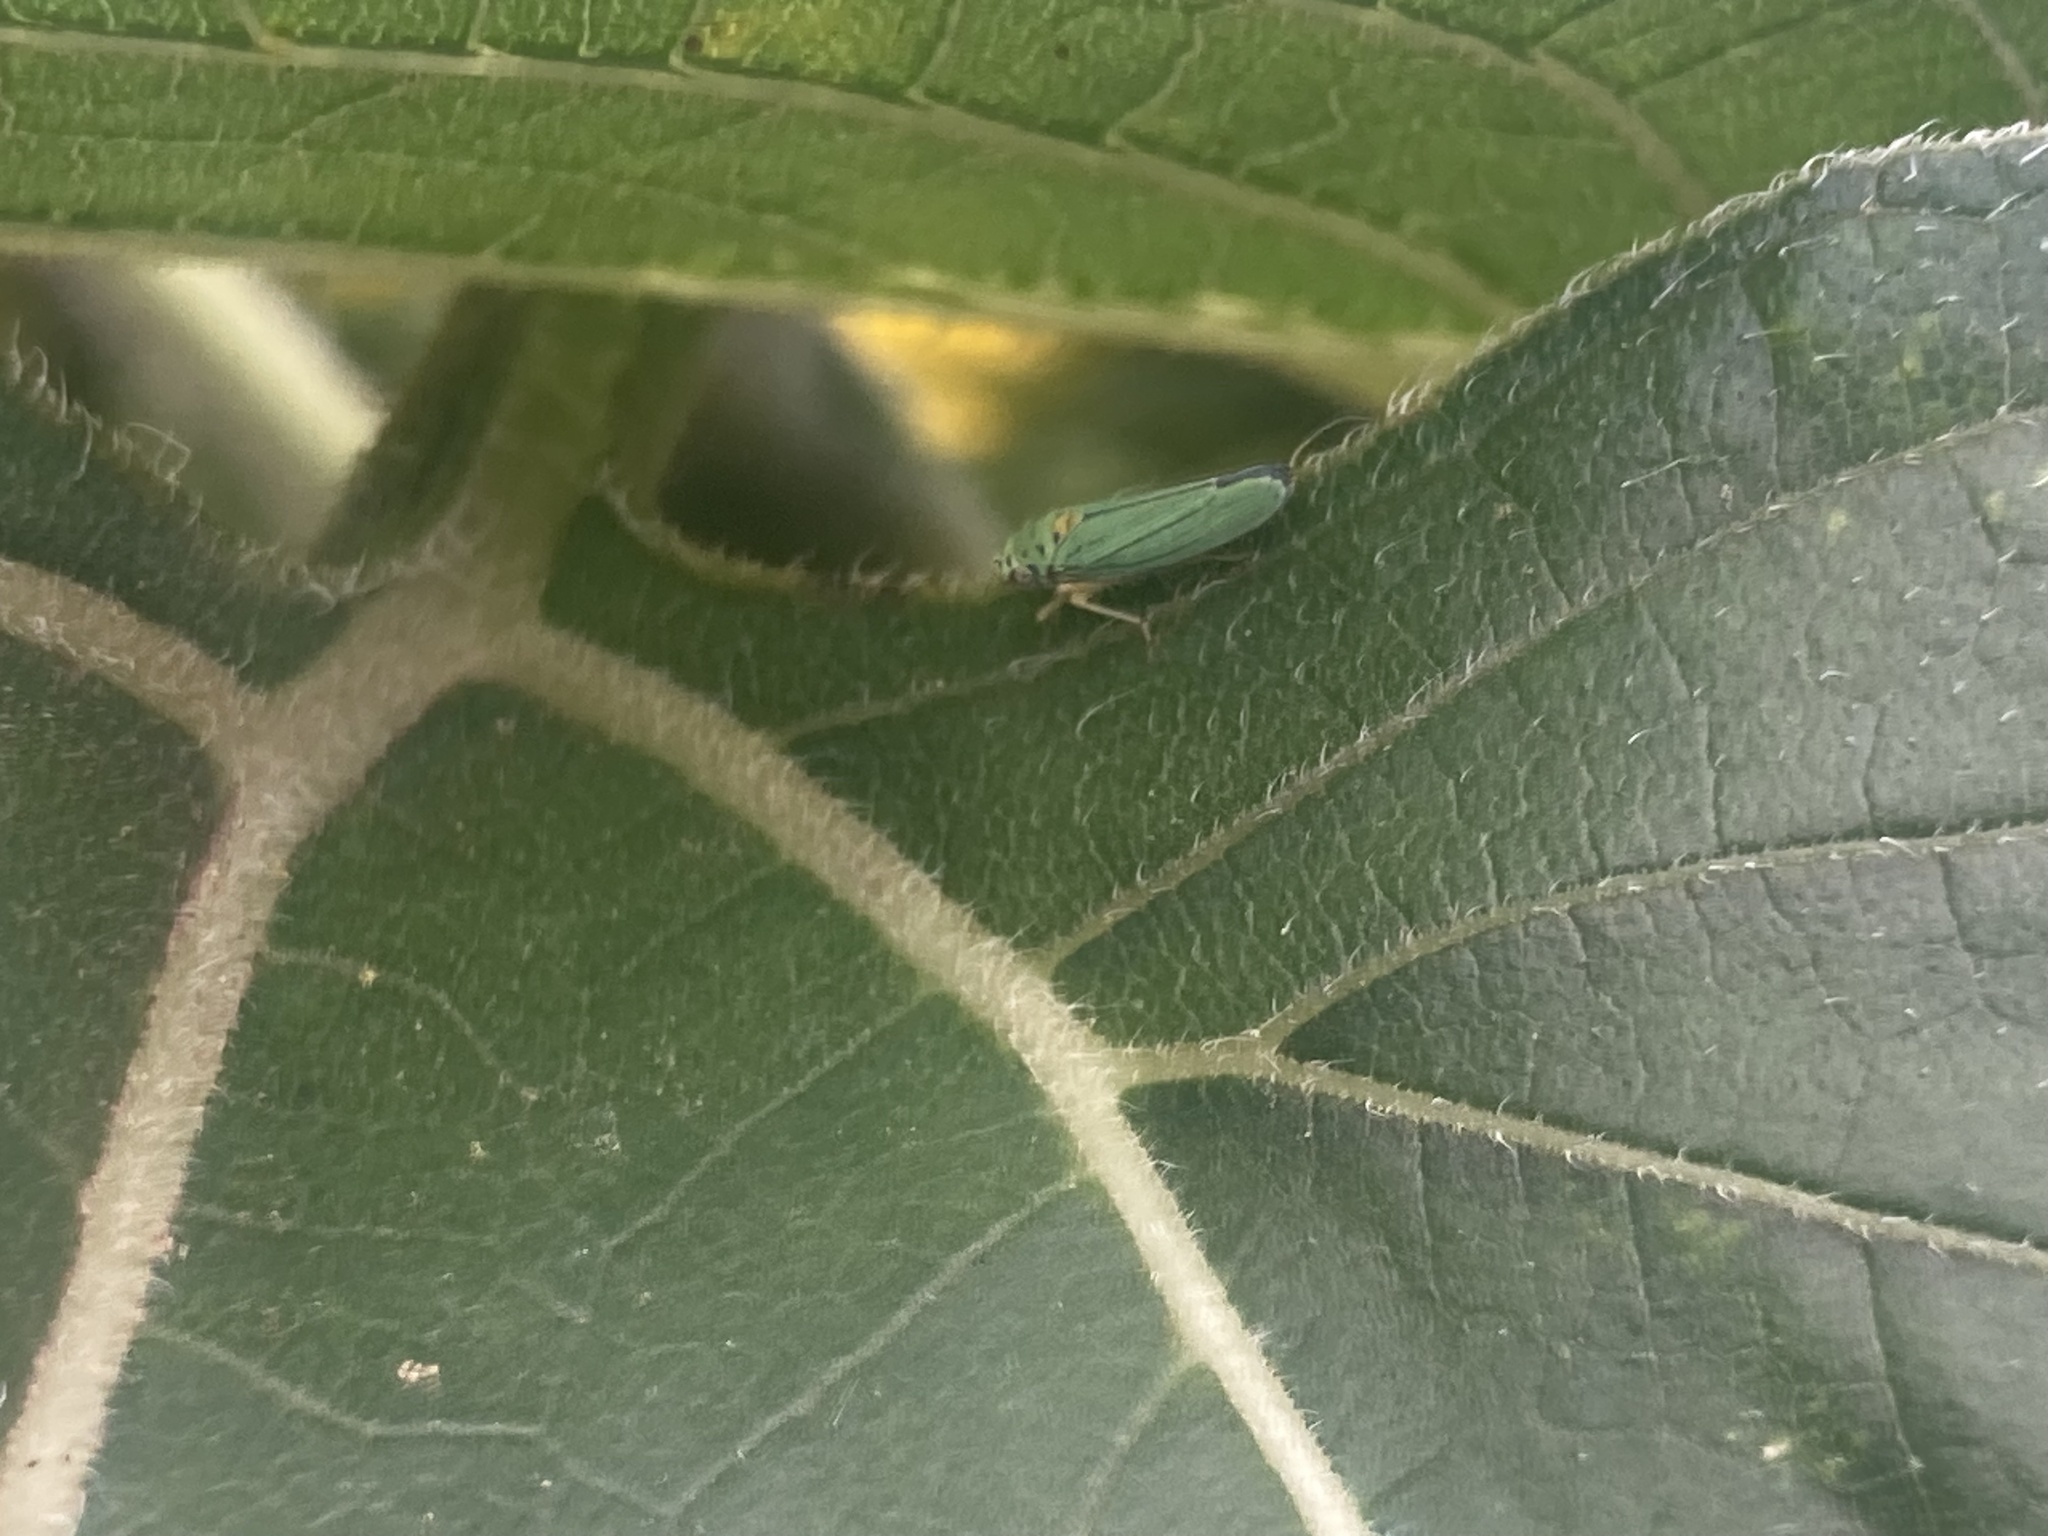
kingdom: Animalia
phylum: Arthropoda
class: Insecta
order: Hemiptera
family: Cicadellidae
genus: Graphocephala
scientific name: Graphocephala atropunctata
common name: Blue-green sharpshooter
